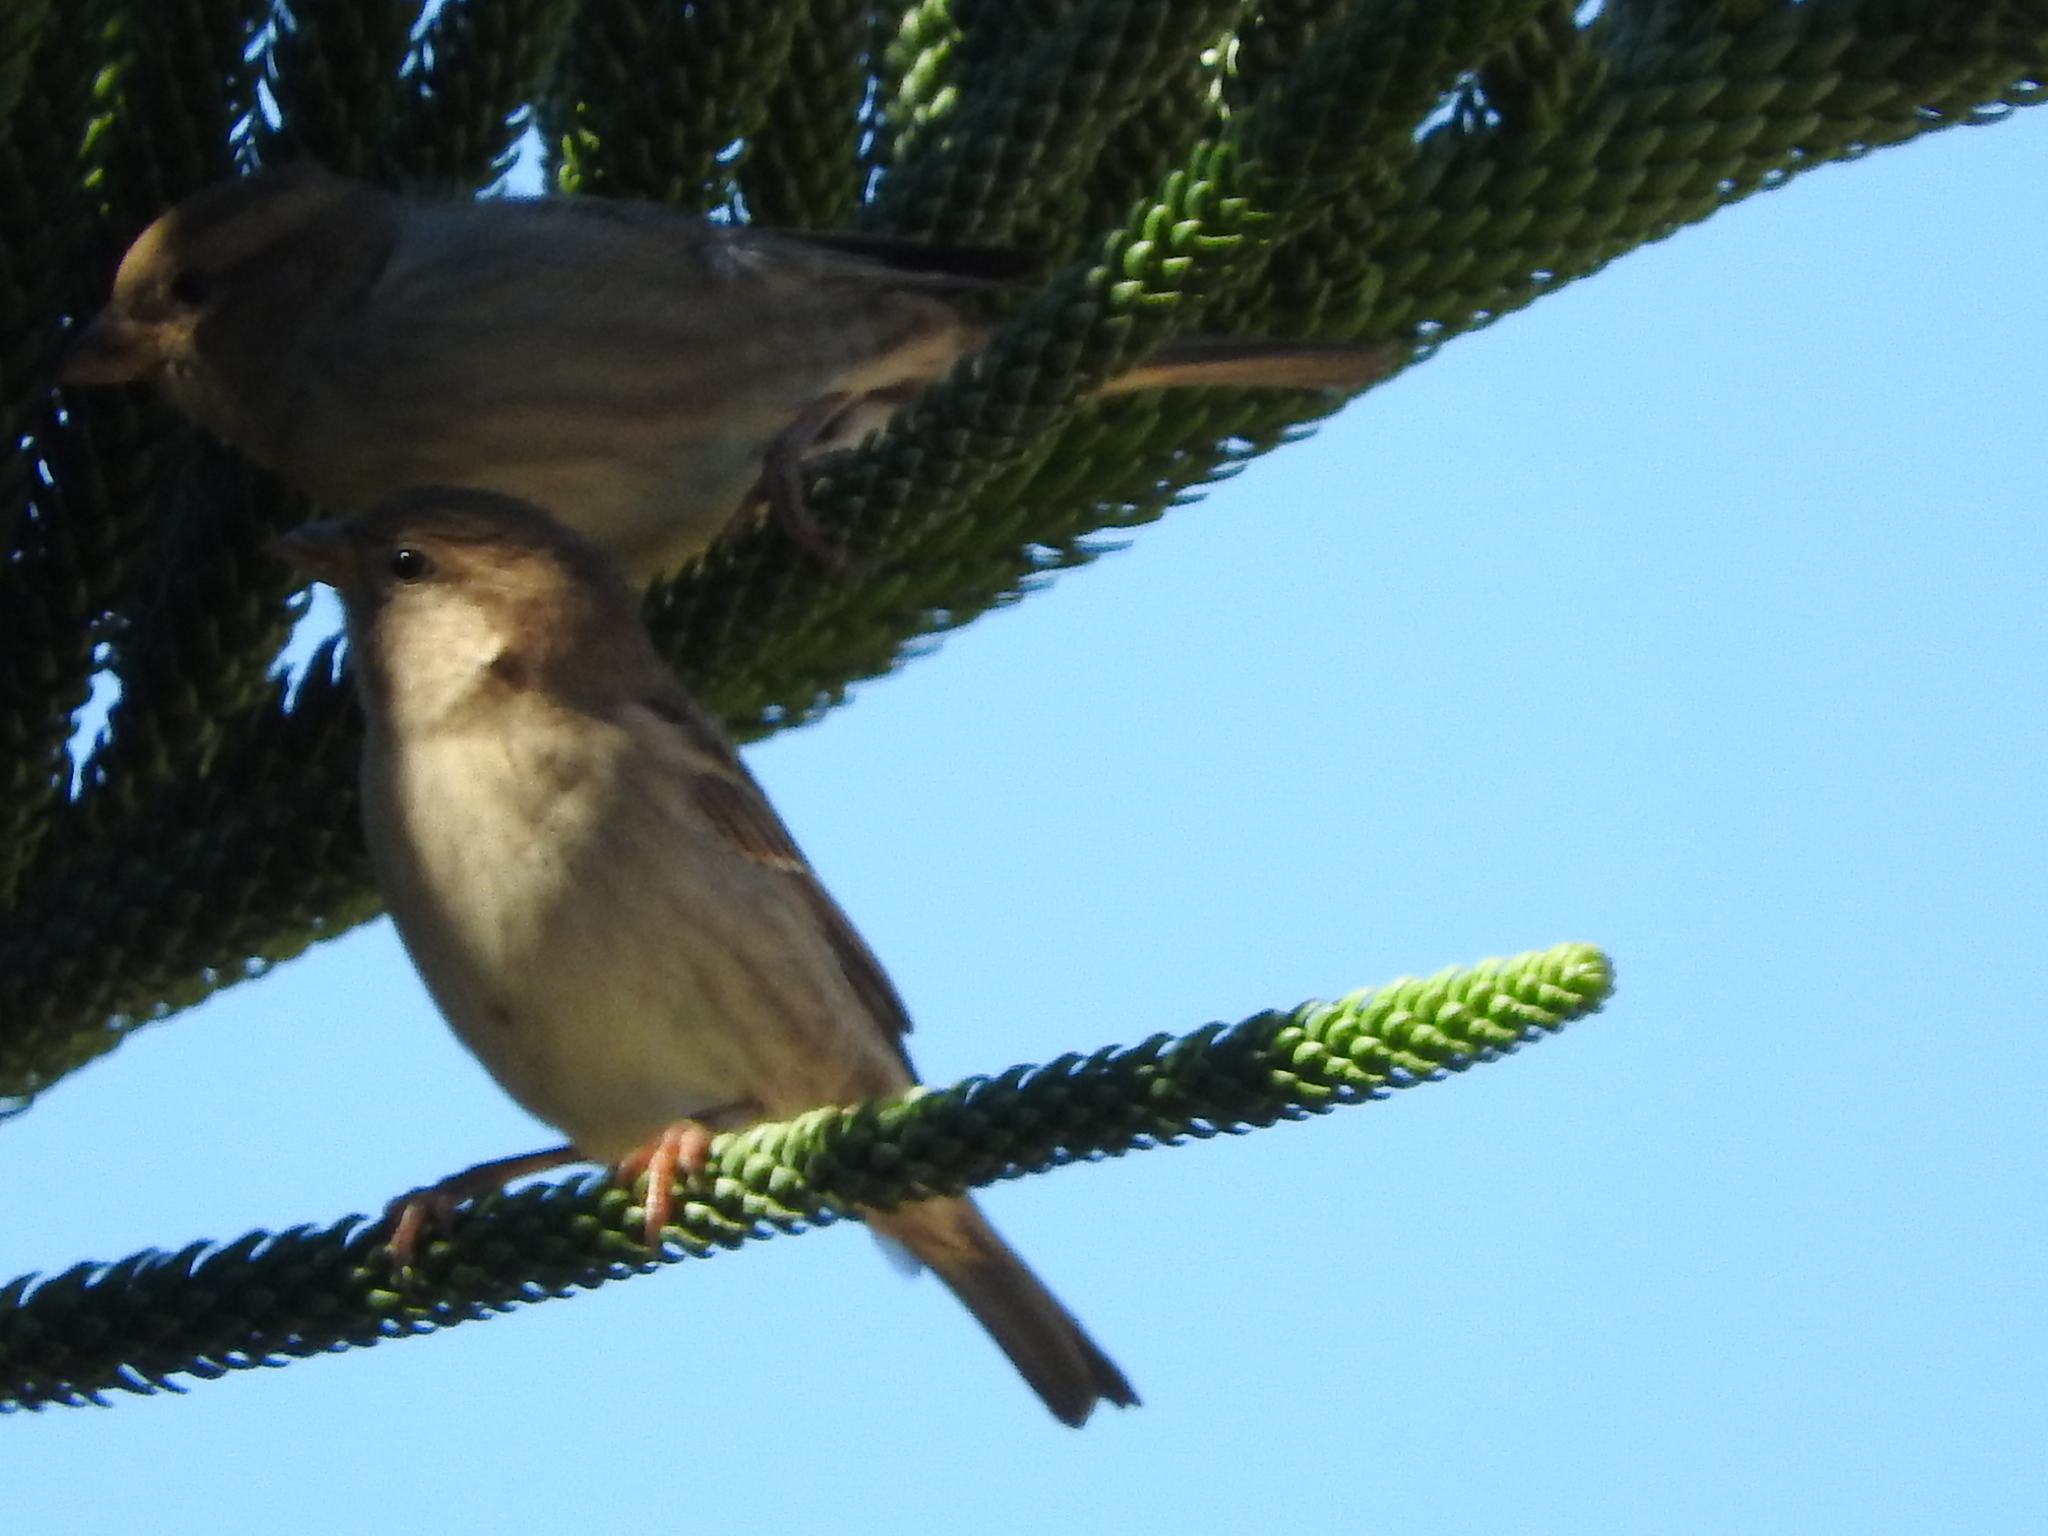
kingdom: Animalia
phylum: Chordata
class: Aves
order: Passeriformes
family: Passeridae
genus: Passer
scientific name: Passer italiae
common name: Italian sparrow
